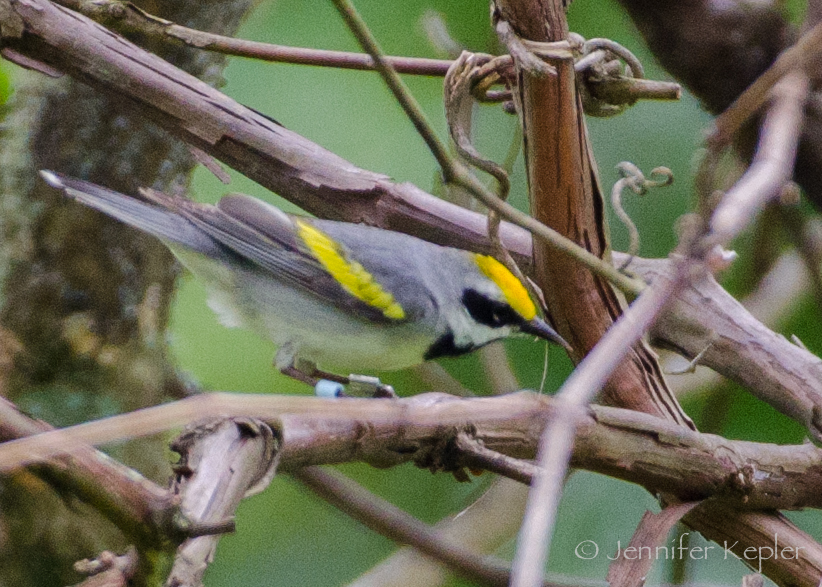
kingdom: Animalia
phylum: Chordata
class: Aves
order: Passeriformes
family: Parulidae
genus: Vermivora
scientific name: Vermivora chrysoptera
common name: Golden-winged warbler
